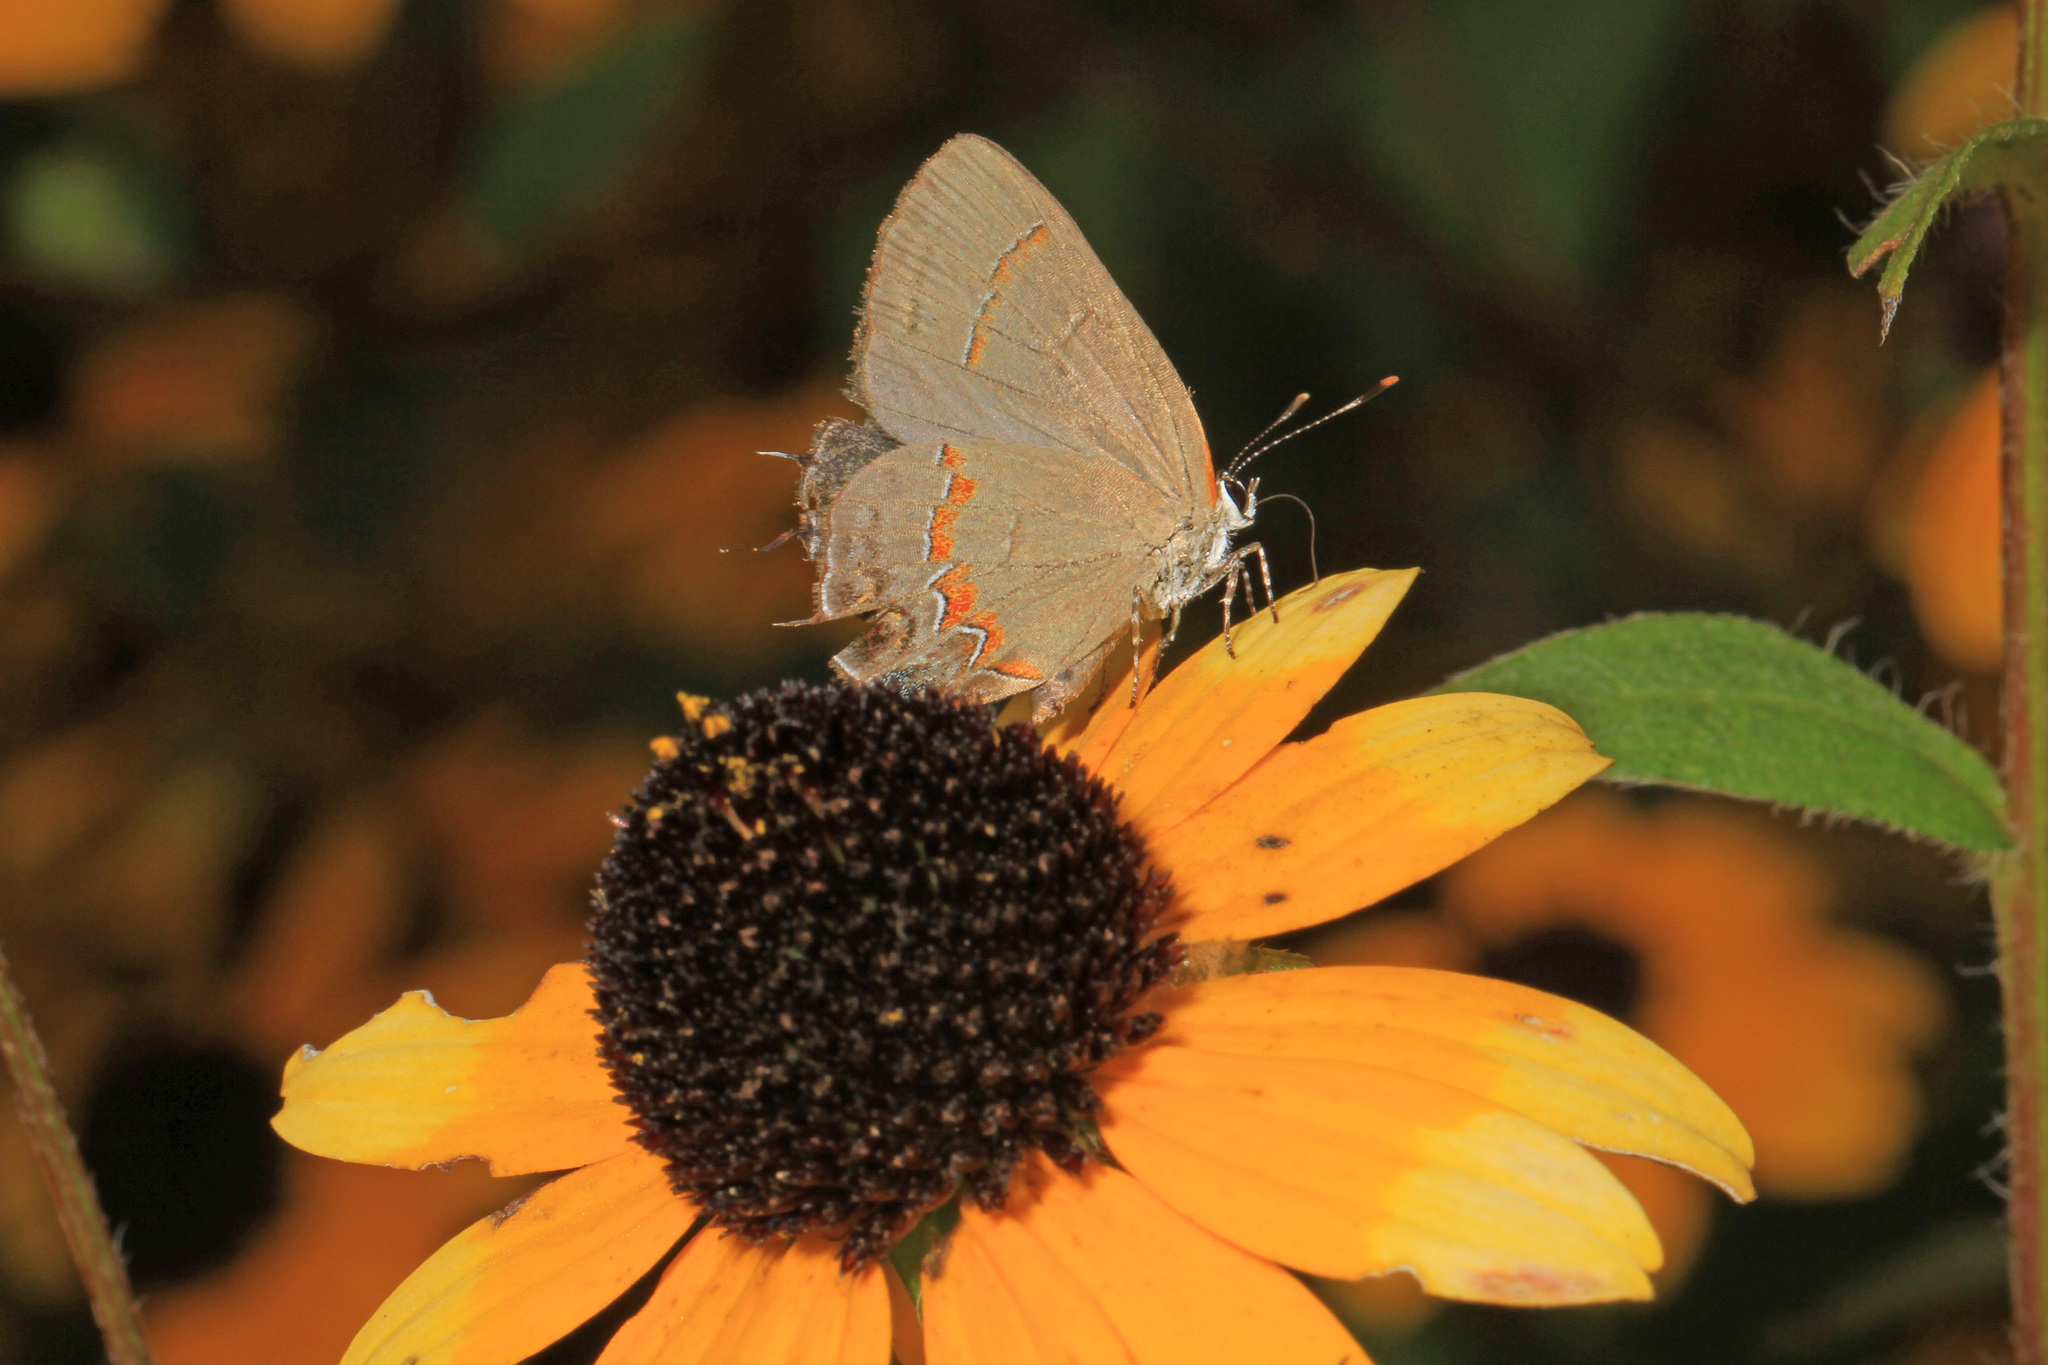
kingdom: Animalia
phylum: Arthropoda
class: Insecta
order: Lepidoptera
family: Lycaenidae
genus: Calycopis
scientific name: Calycopis cecrops
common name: Red-banded hairstreak
